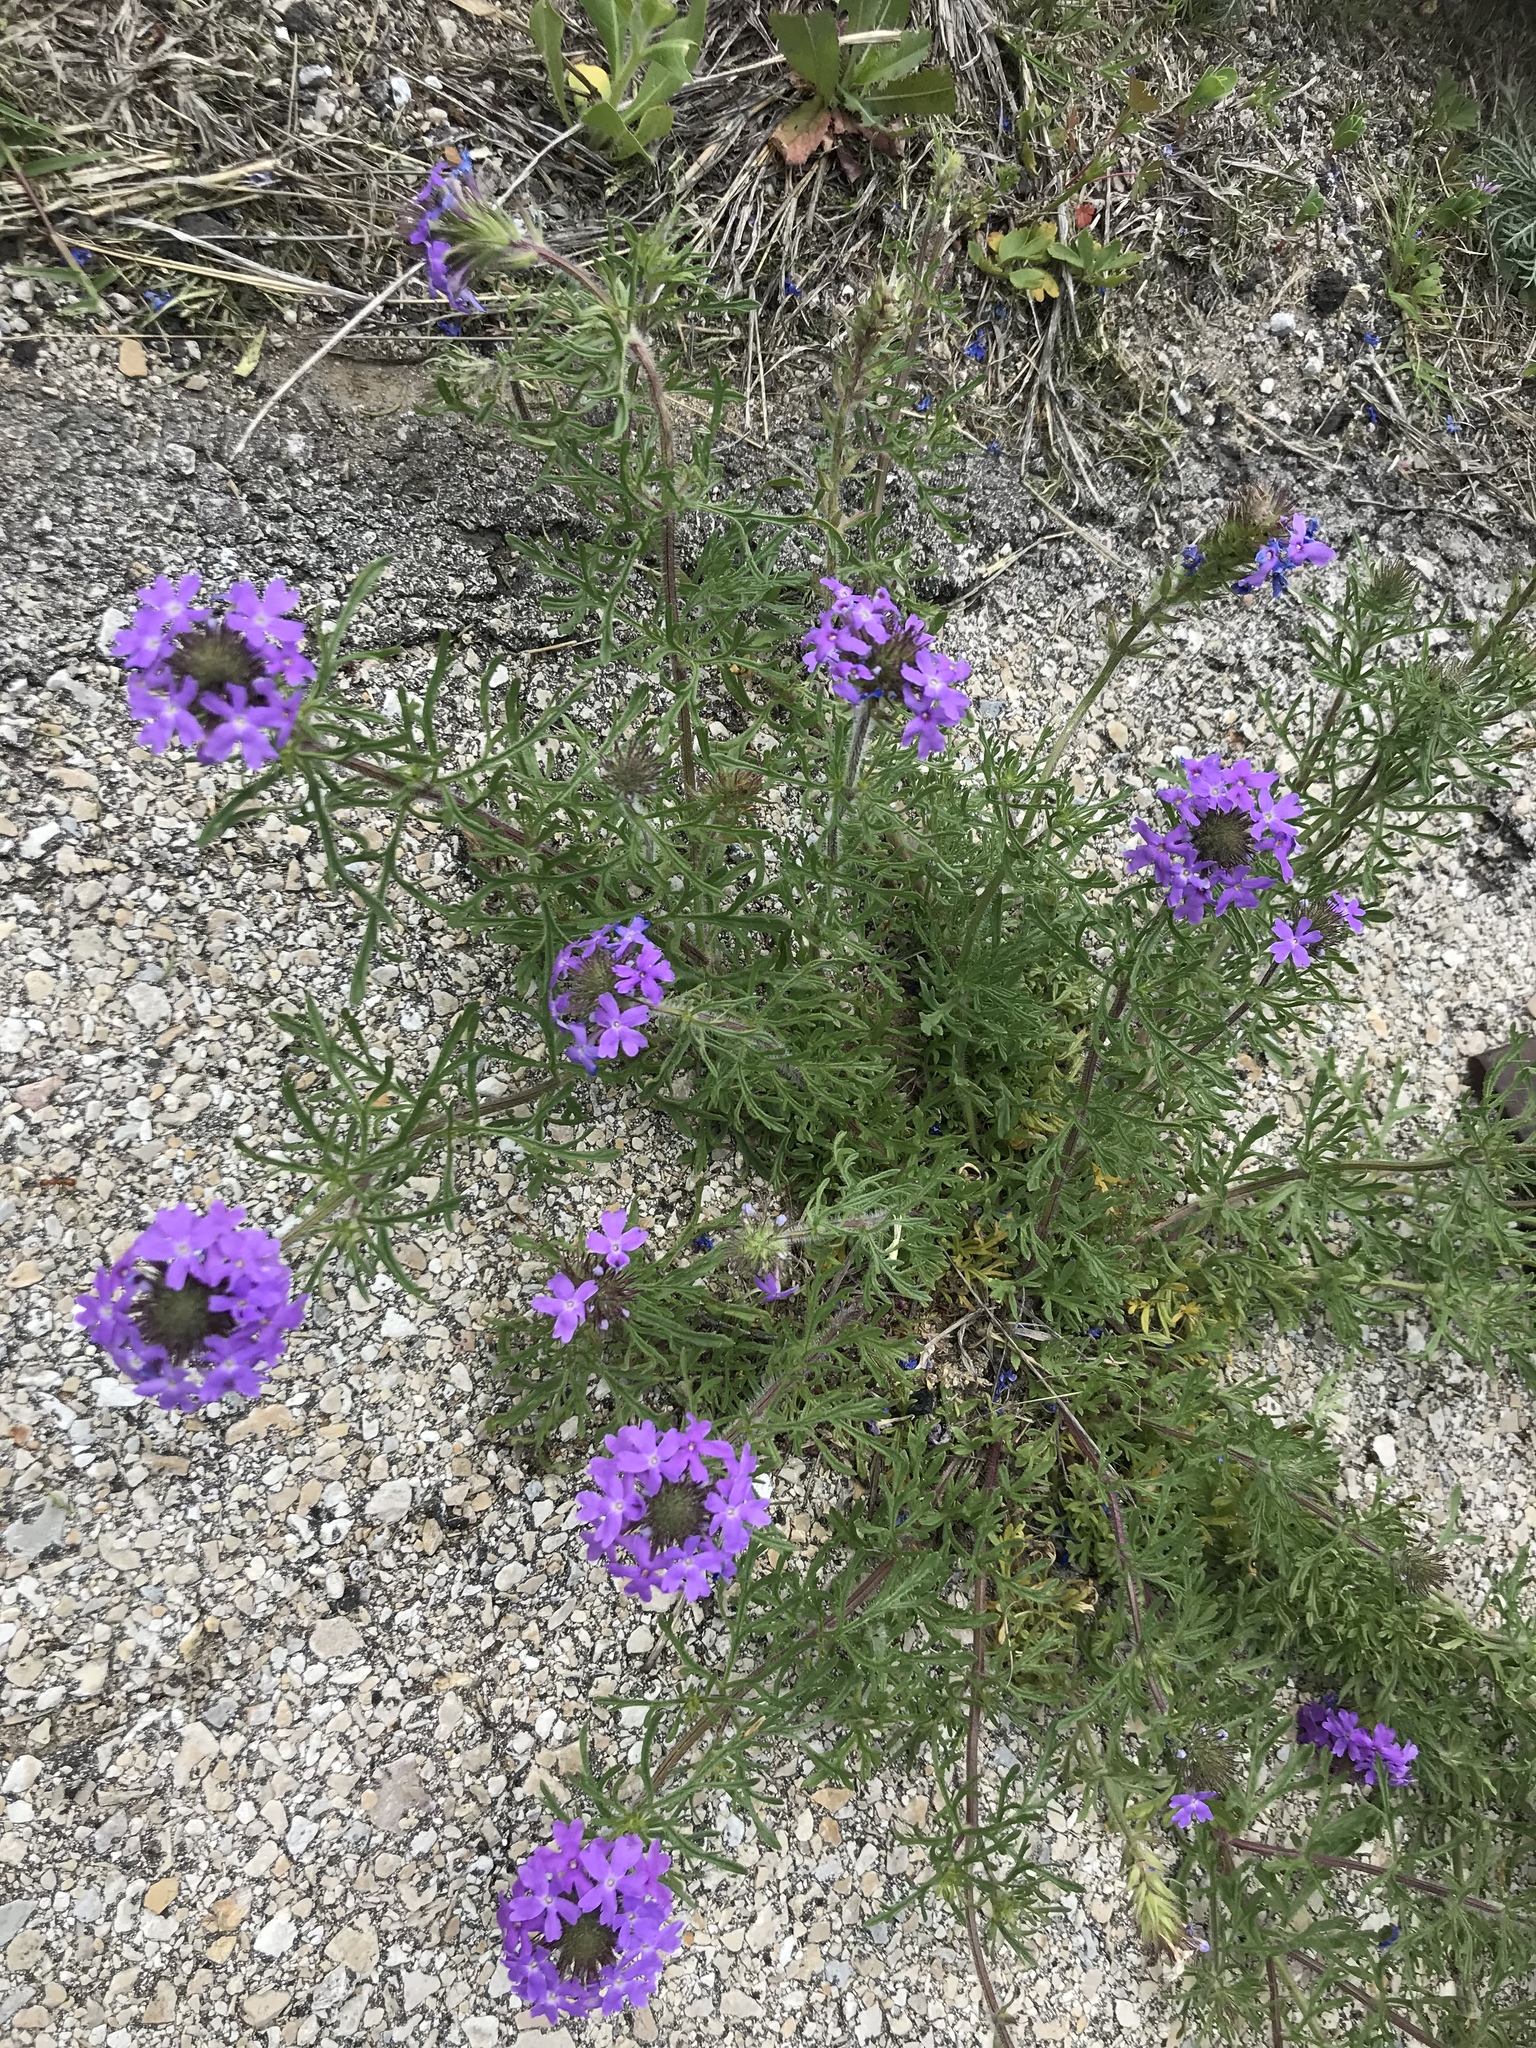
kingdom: Plantae
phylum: Tracheophyta
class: Magnoliopsida
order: Lamiales
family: Verbenaceae
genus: Verbena
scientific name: Verbena bipinnatifida
